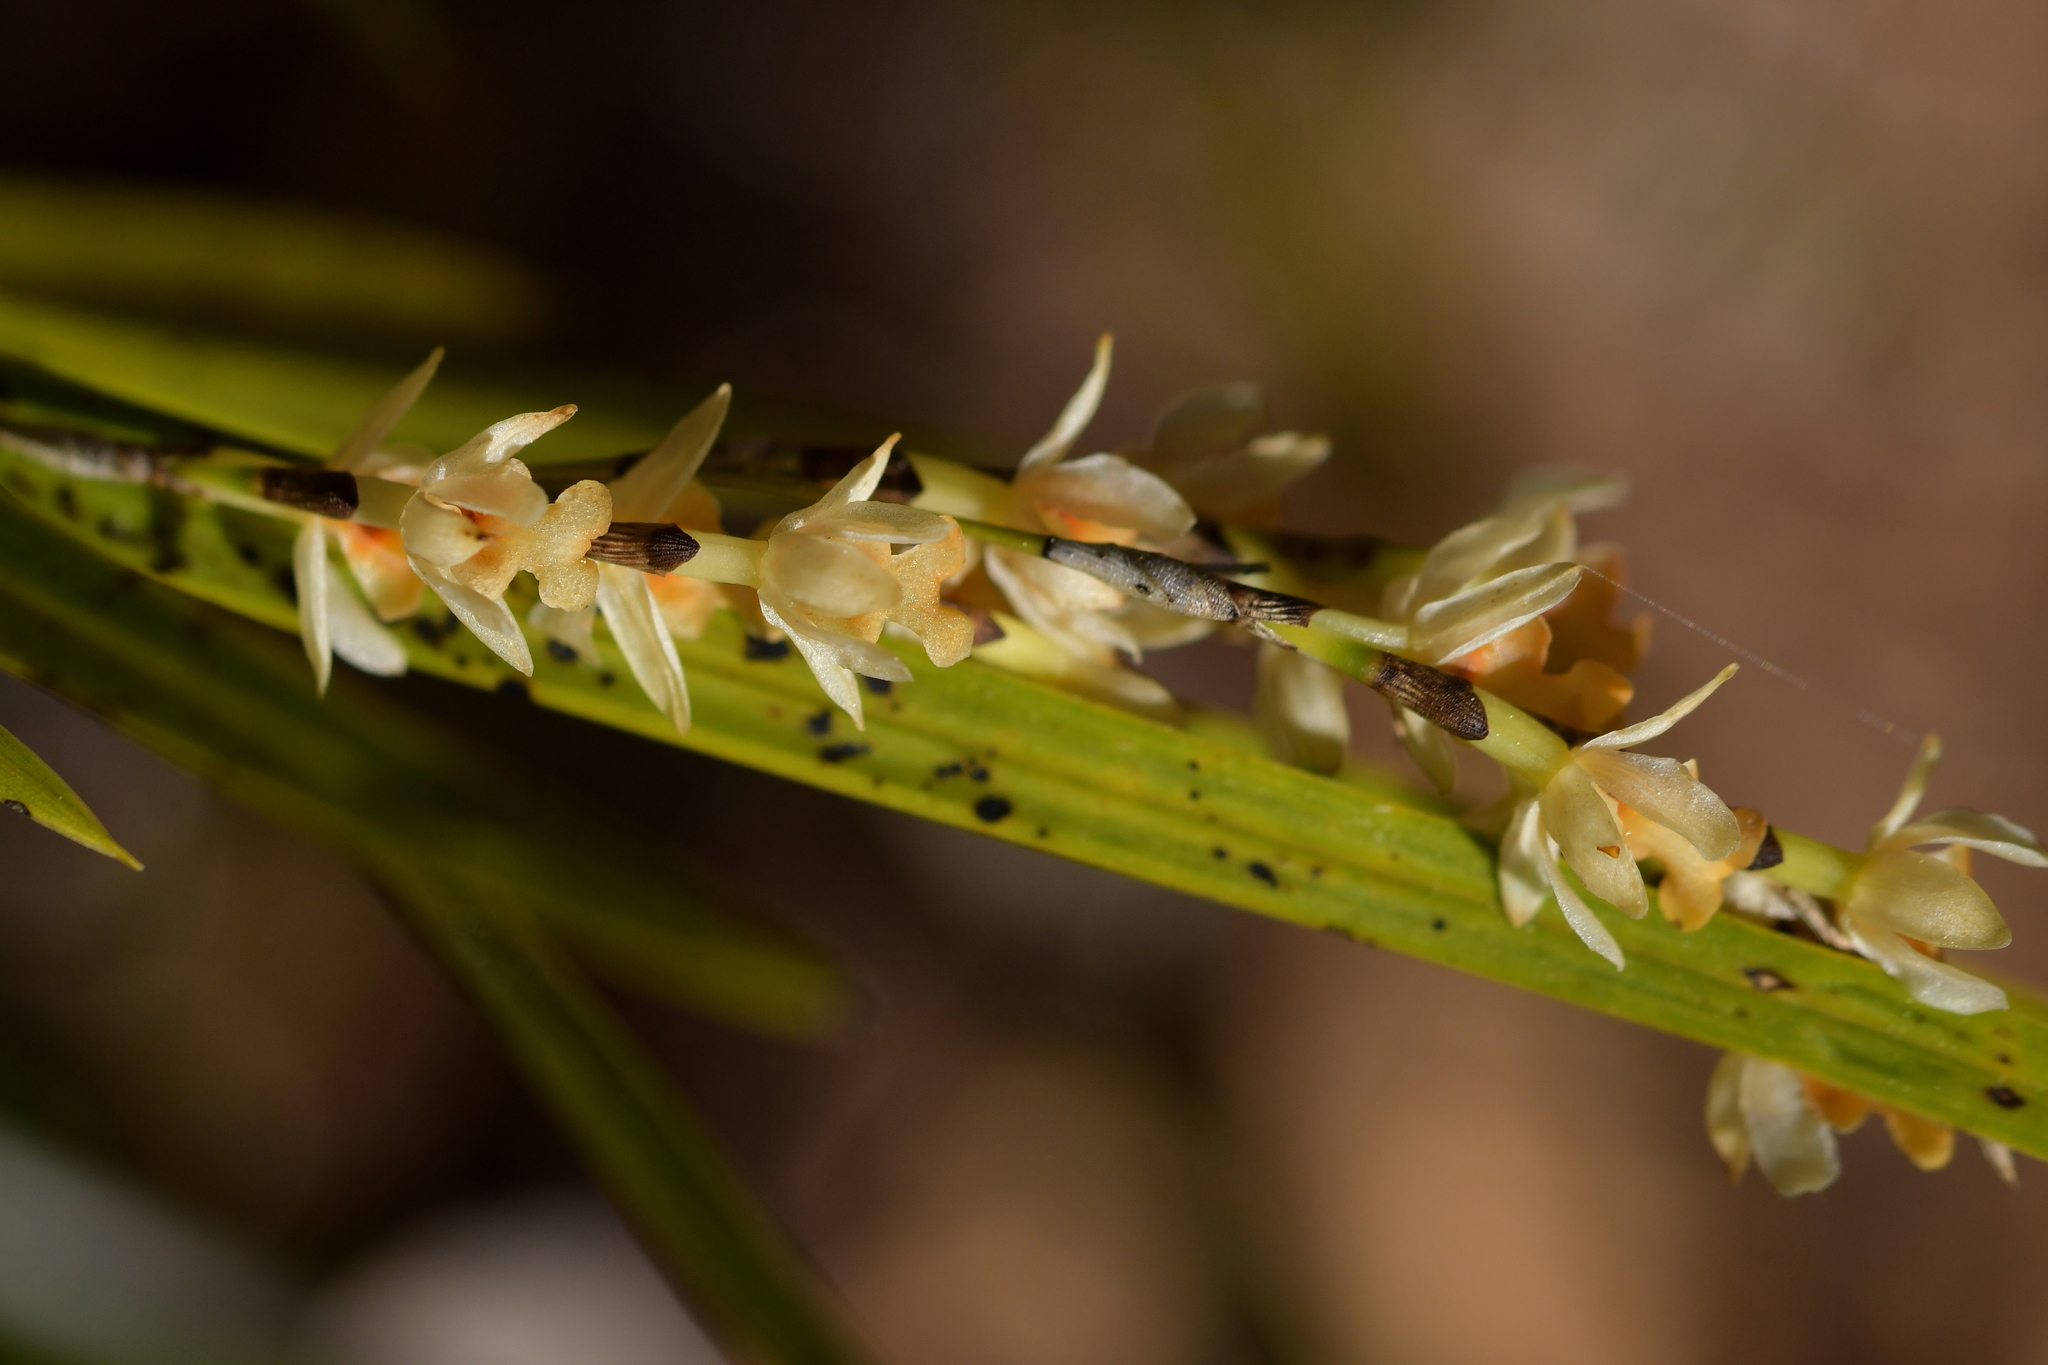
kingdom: Plantae
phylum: Tracheophyta
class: Liliopsida
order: Asparagales
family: Orchidaceae
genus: Earina
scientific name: Earina mucronata
